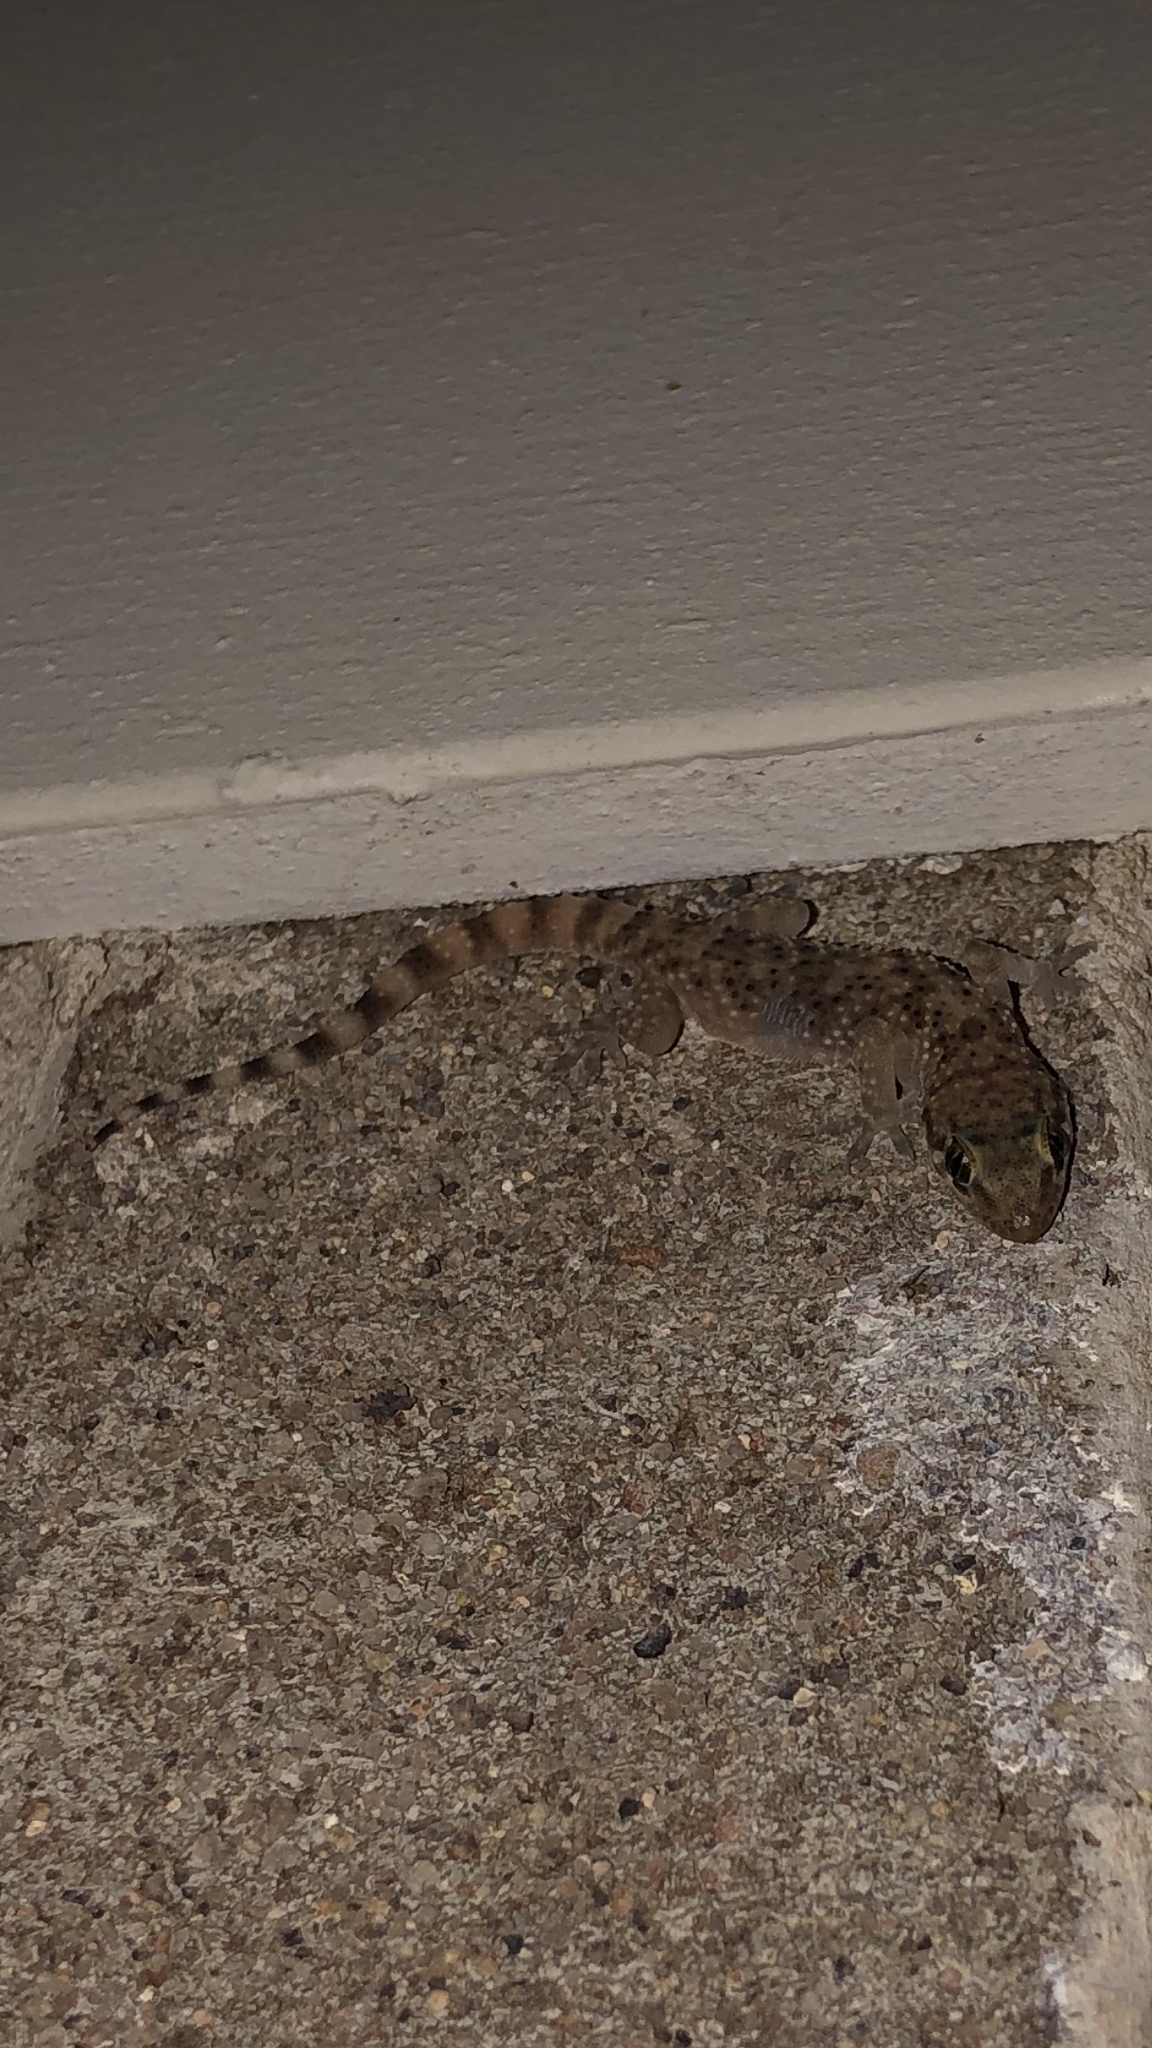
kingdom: Animalia
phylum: Chordata
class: Squamata
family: Gekkonidae
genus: Hemidactylus
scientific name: Hemidactylus turcicus
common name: Turkish gecko
